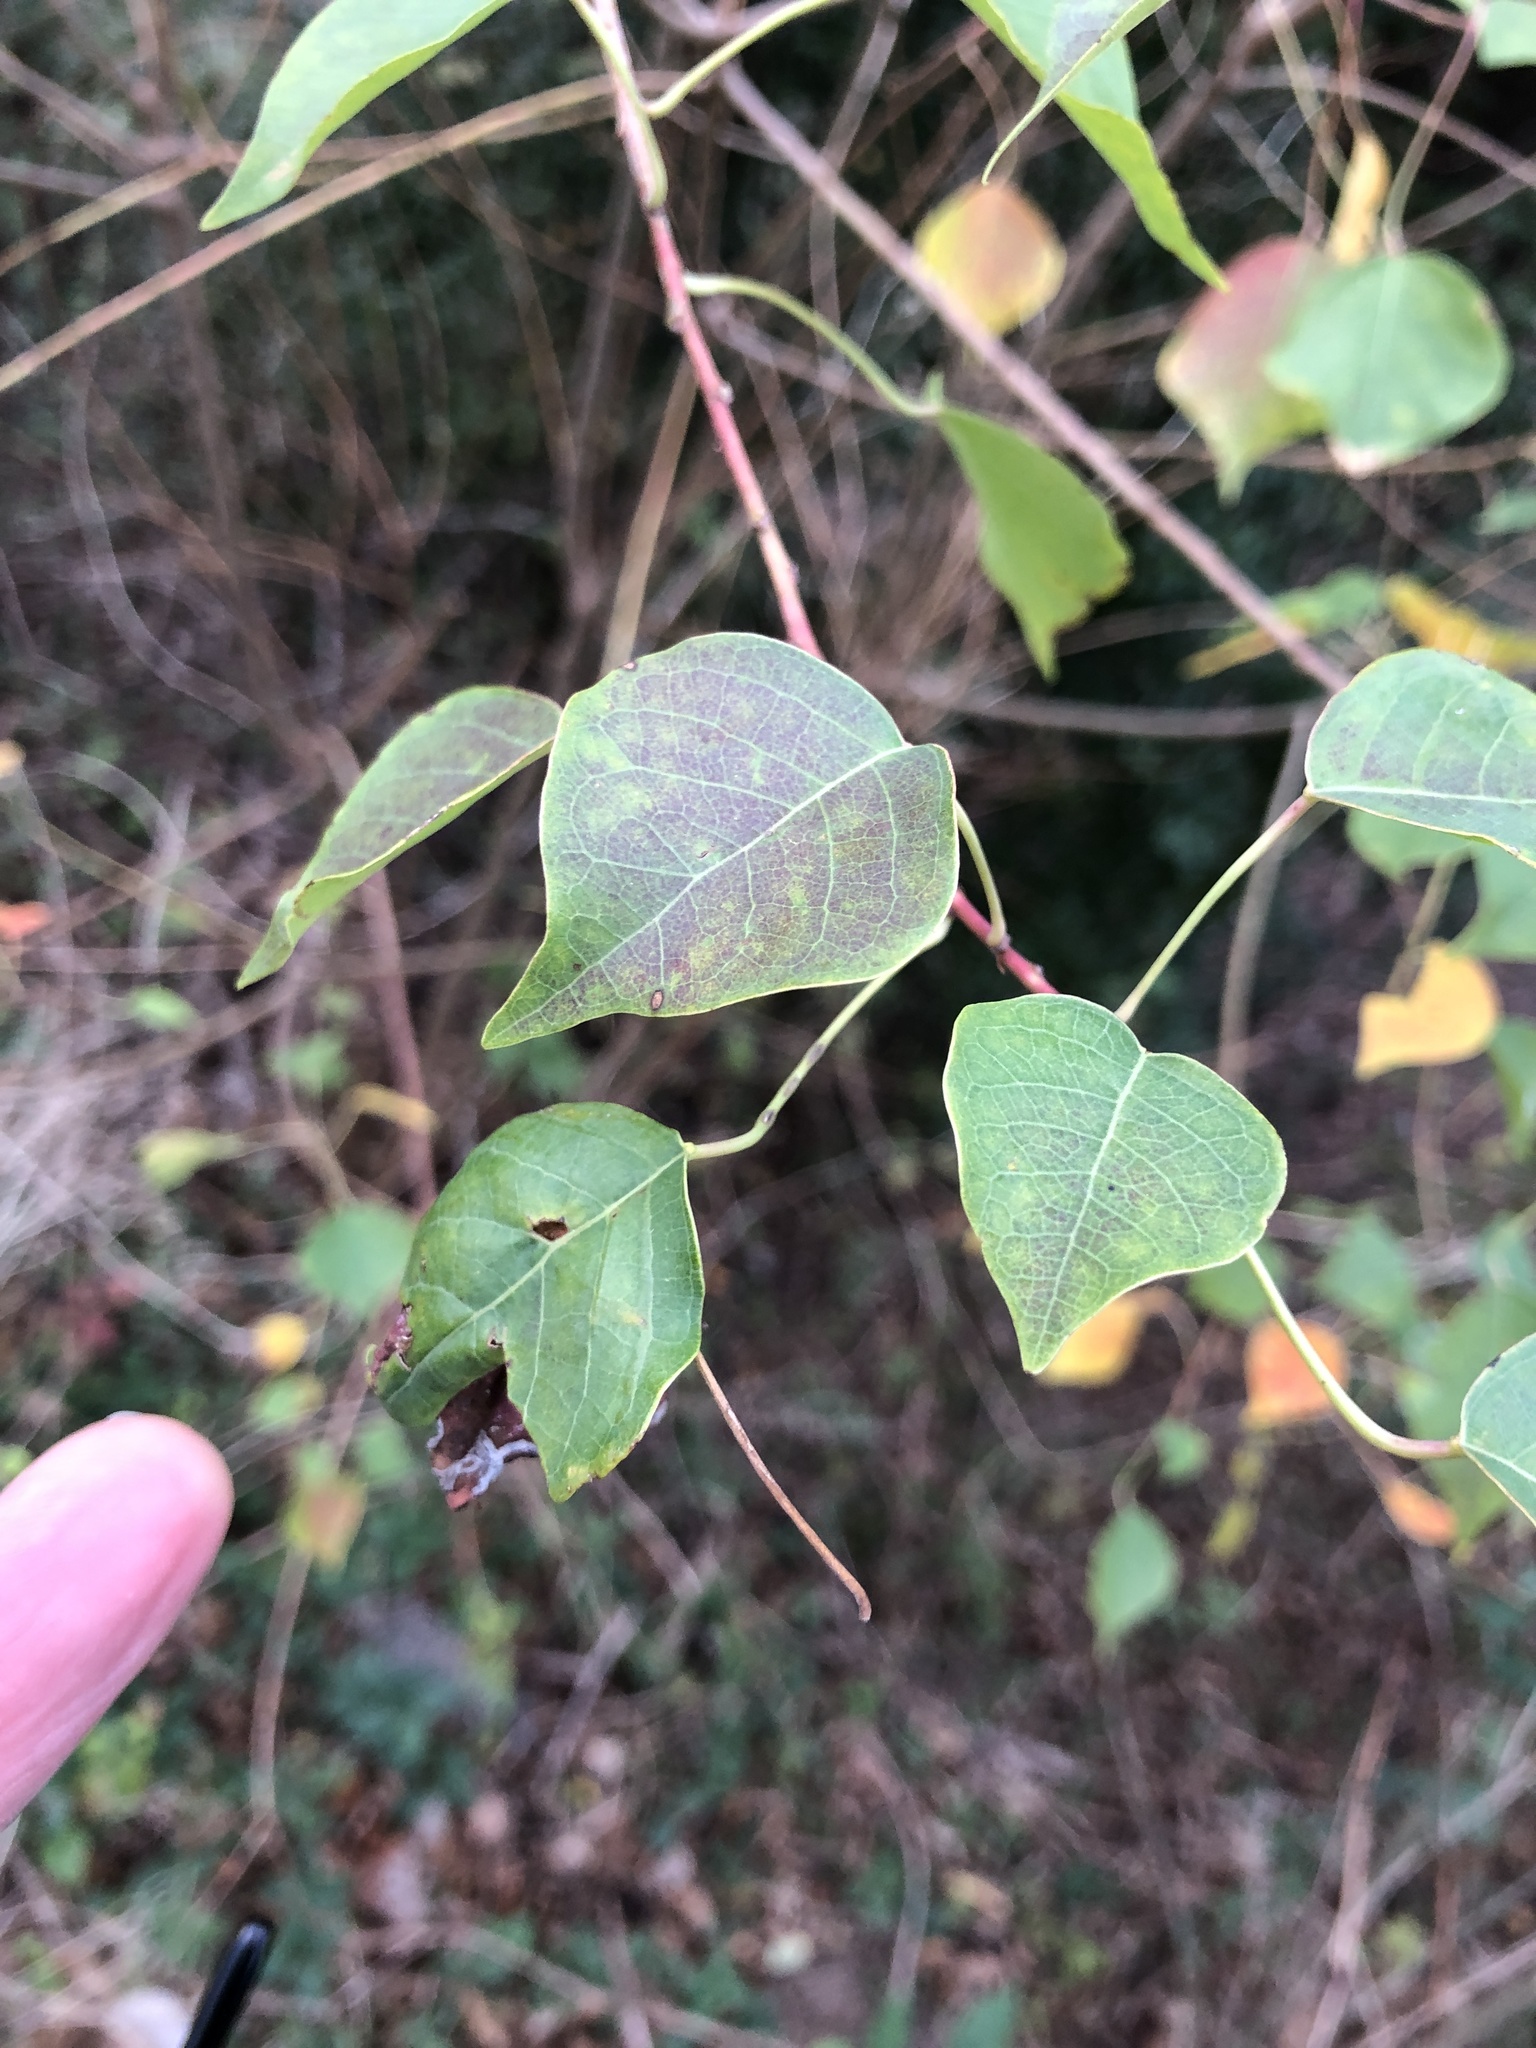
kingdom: Plantae
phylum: Tracheophyta
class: Magnoliopsida
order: Malpighiales
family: Euphorbiaceae
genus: Triadica
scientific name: Triadica sebifera
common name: Chinese tallow
